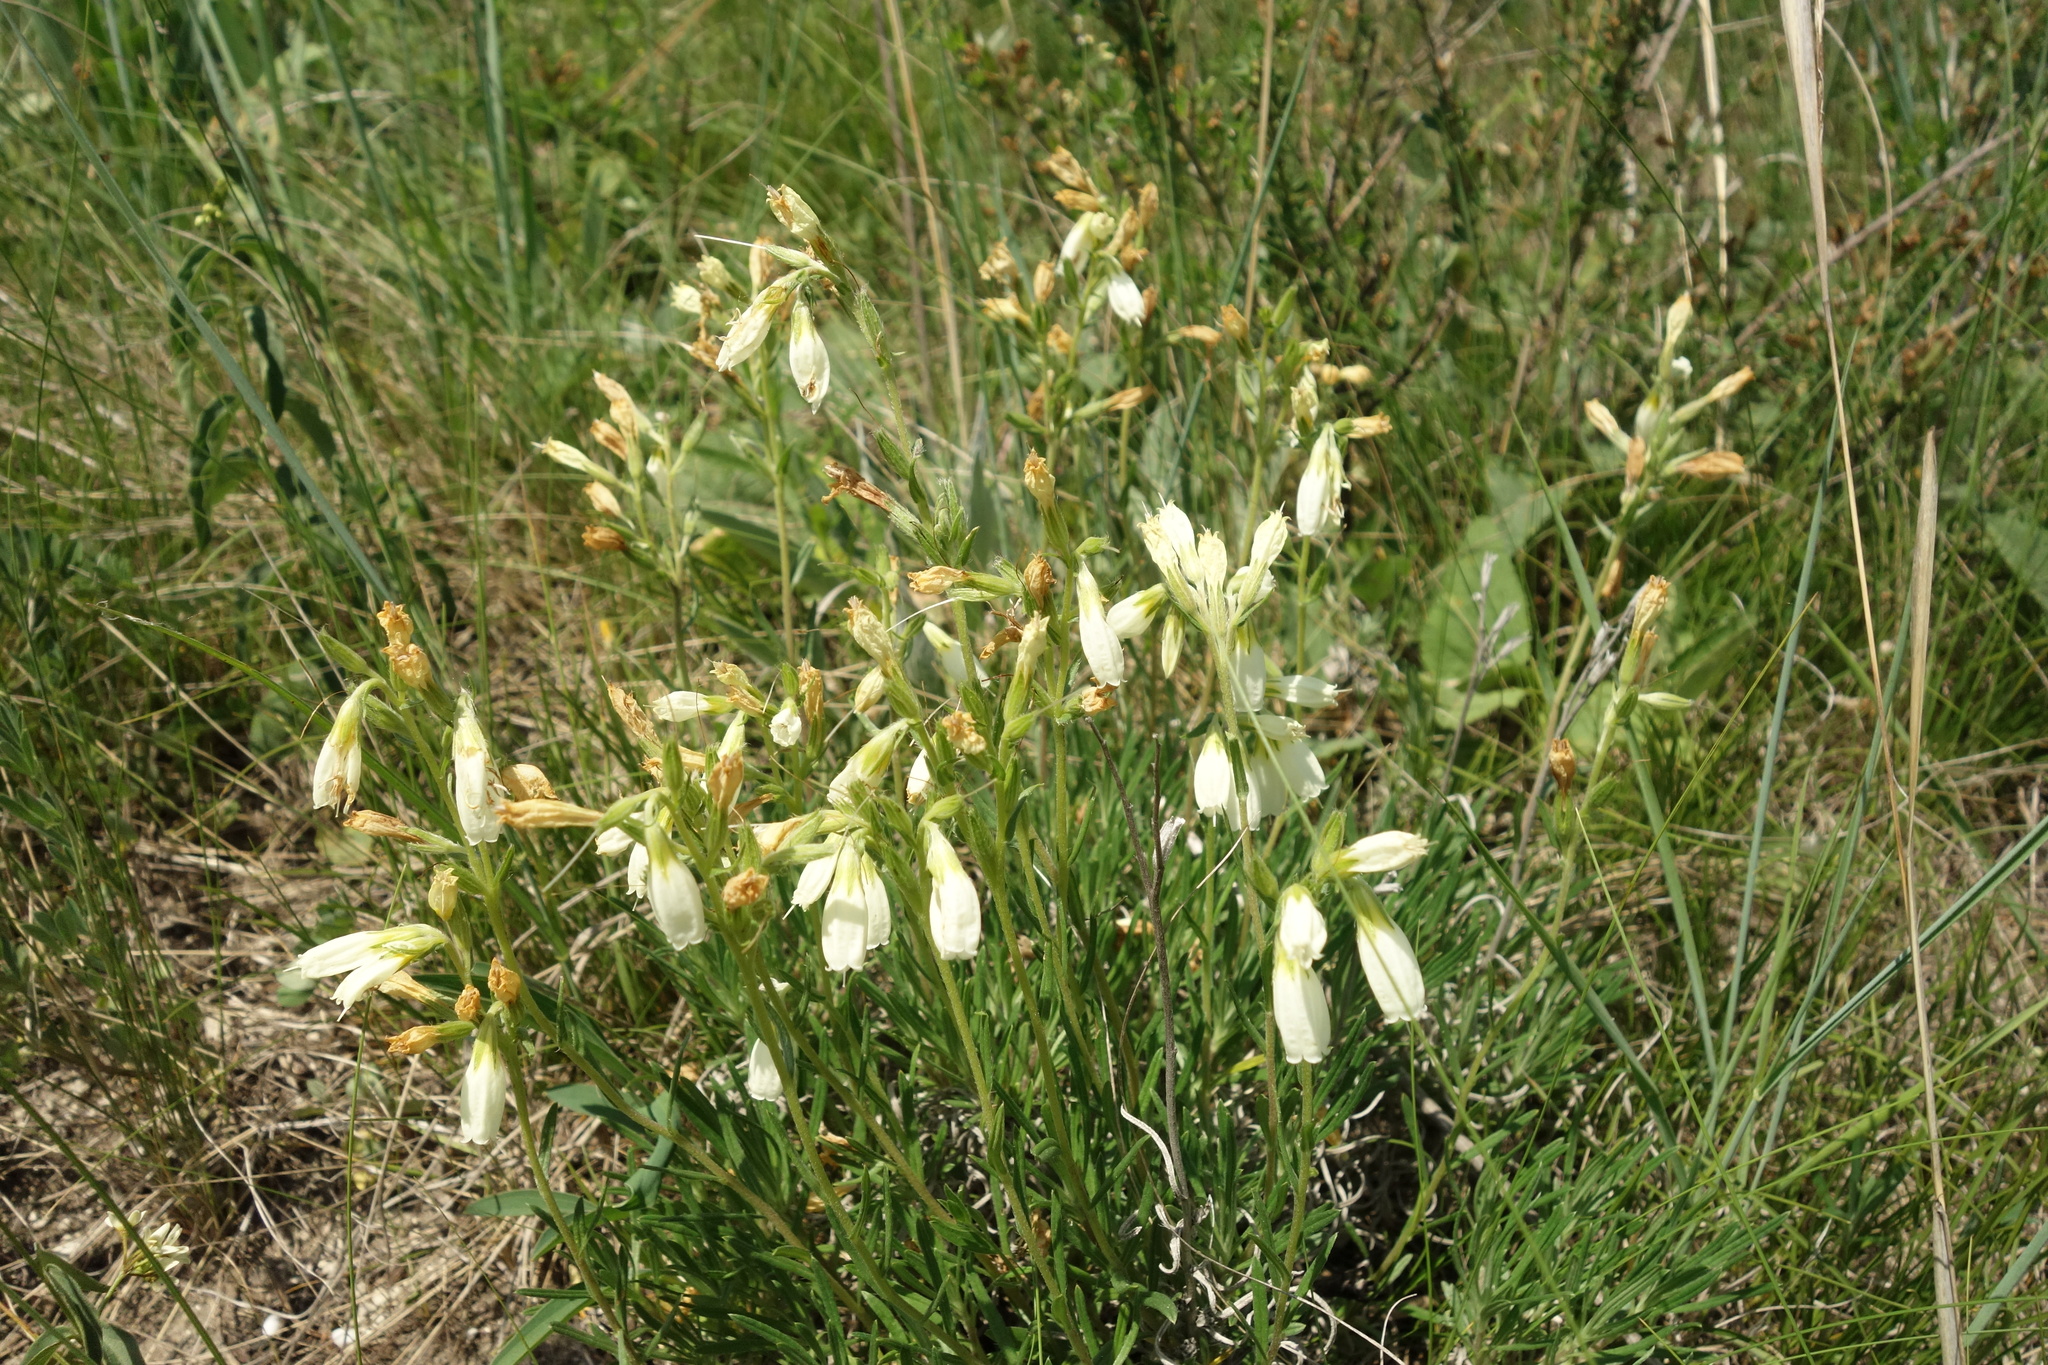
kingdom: Plantae
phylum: Tracheophyta
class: Magnoliopsida
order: Boraginales
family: Boraginaceae
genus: Onosma
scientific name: Onosma simplicissima
